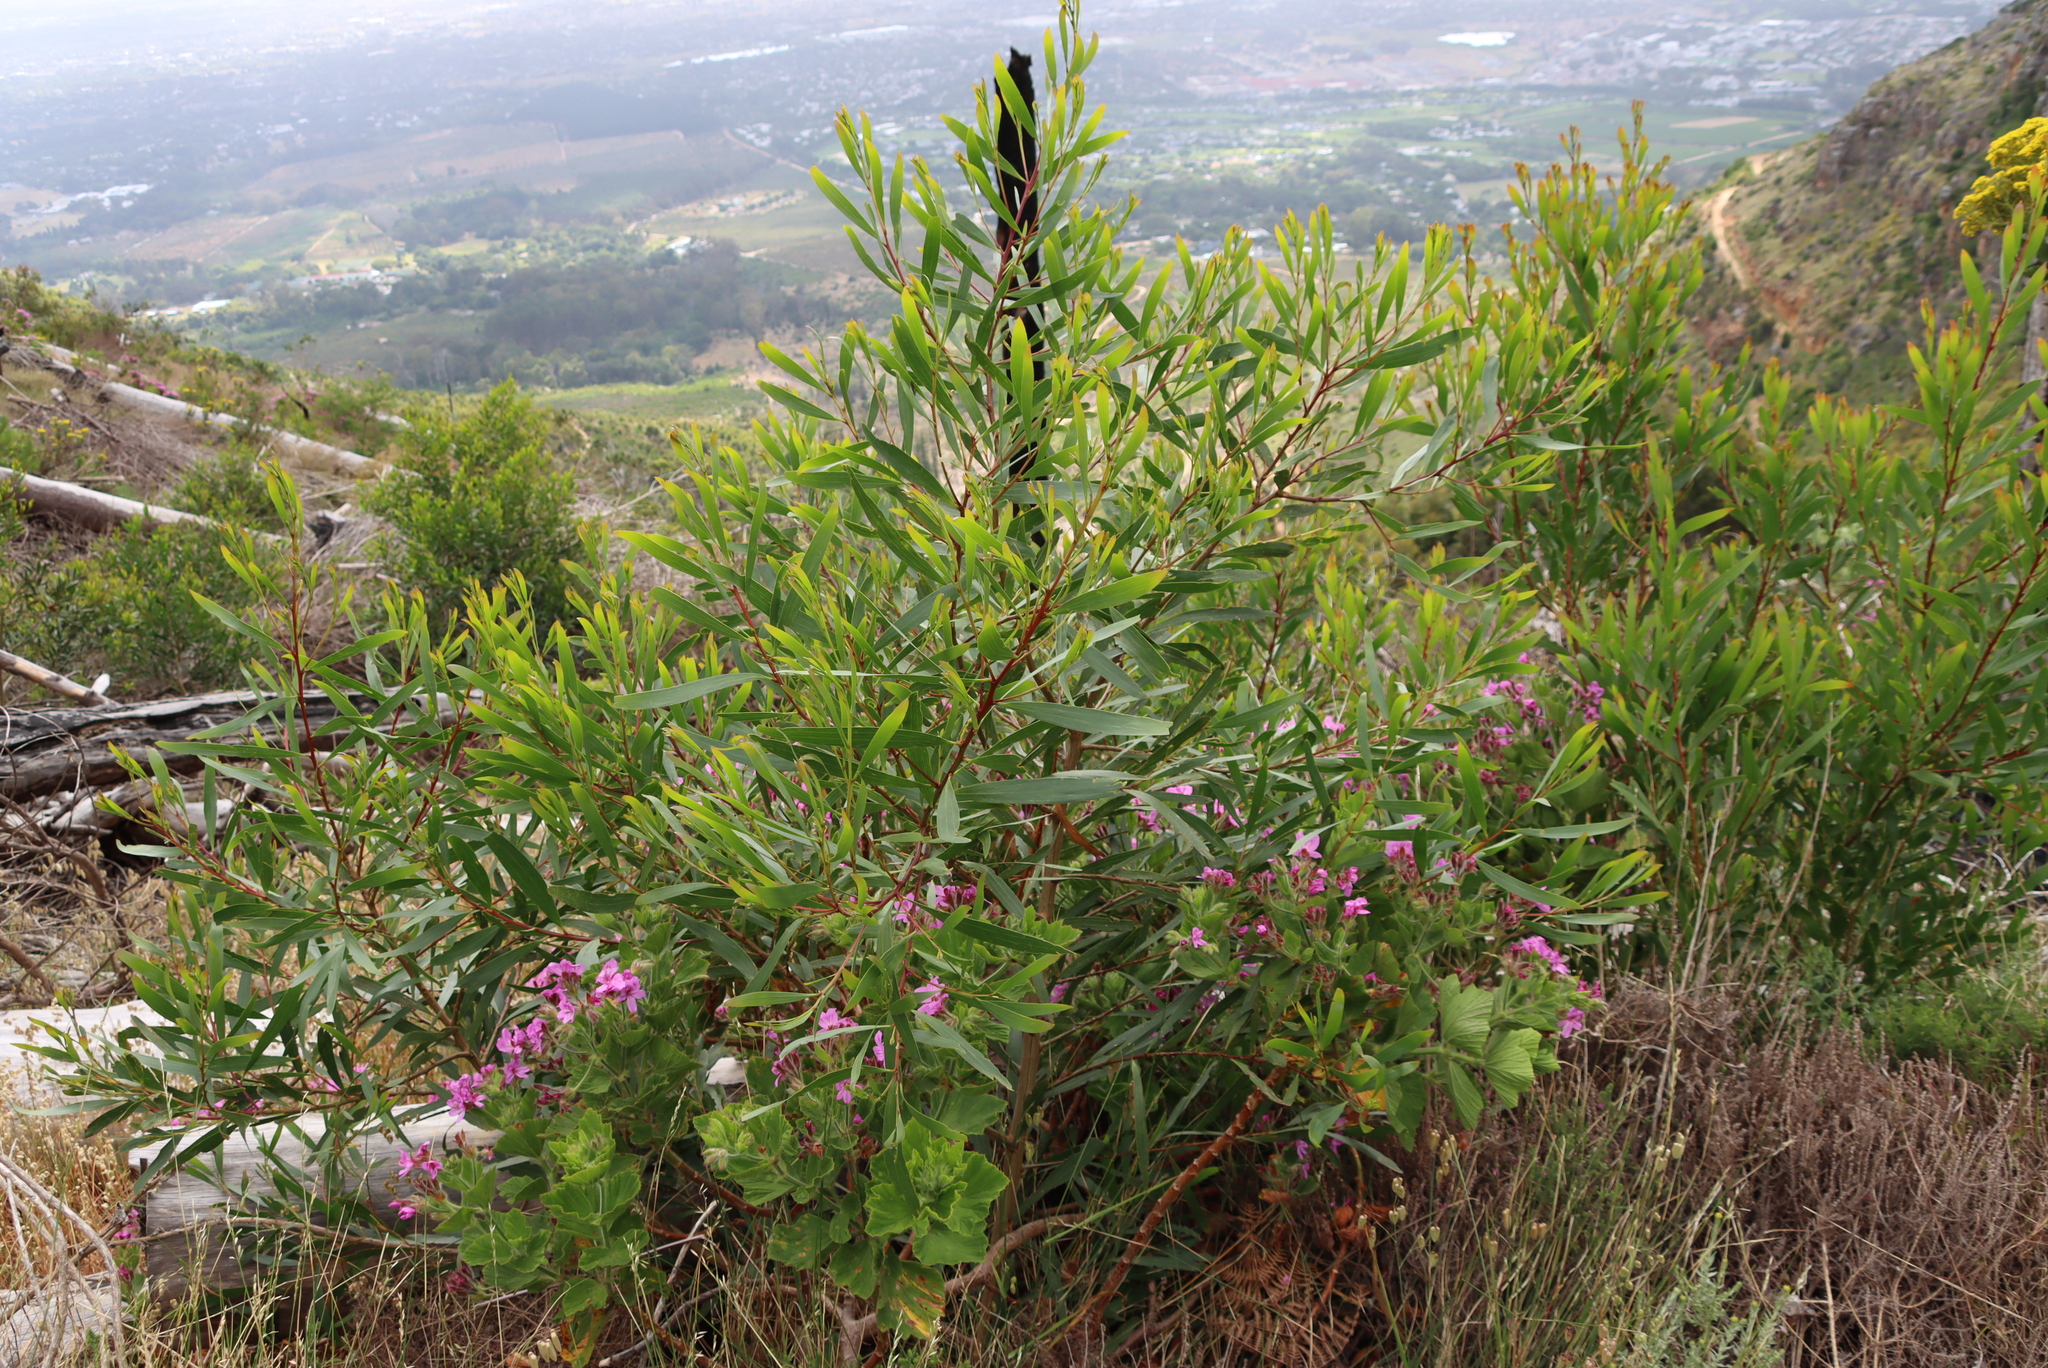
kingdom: Plantae
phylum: Tracheophyta
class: Magnoliopsida
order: Fabales
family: Fabaceae
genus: Acacia
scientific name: Acacia longifolia
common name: Sydney golden wattle
